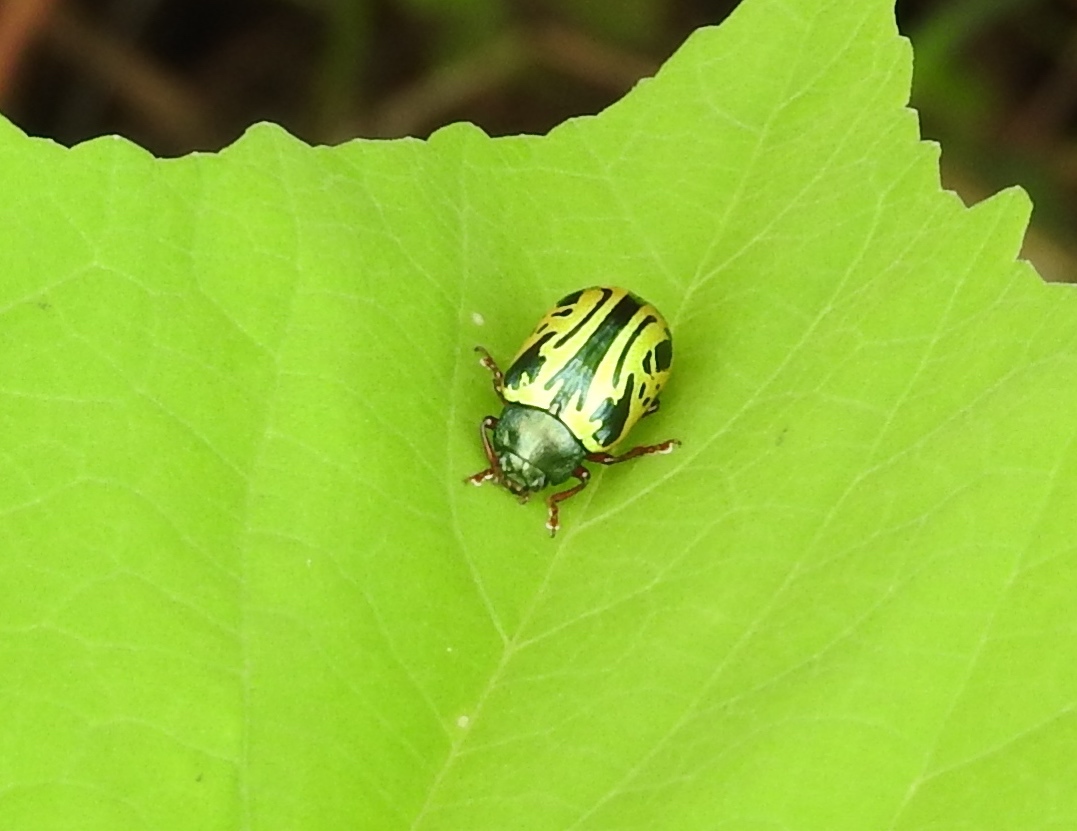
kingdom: Animalia
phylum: Arthropoda
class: Insecta
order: Coleoptera
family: Chrysomelidae
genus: Calligrapha
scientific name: Calligrapha discrepans
